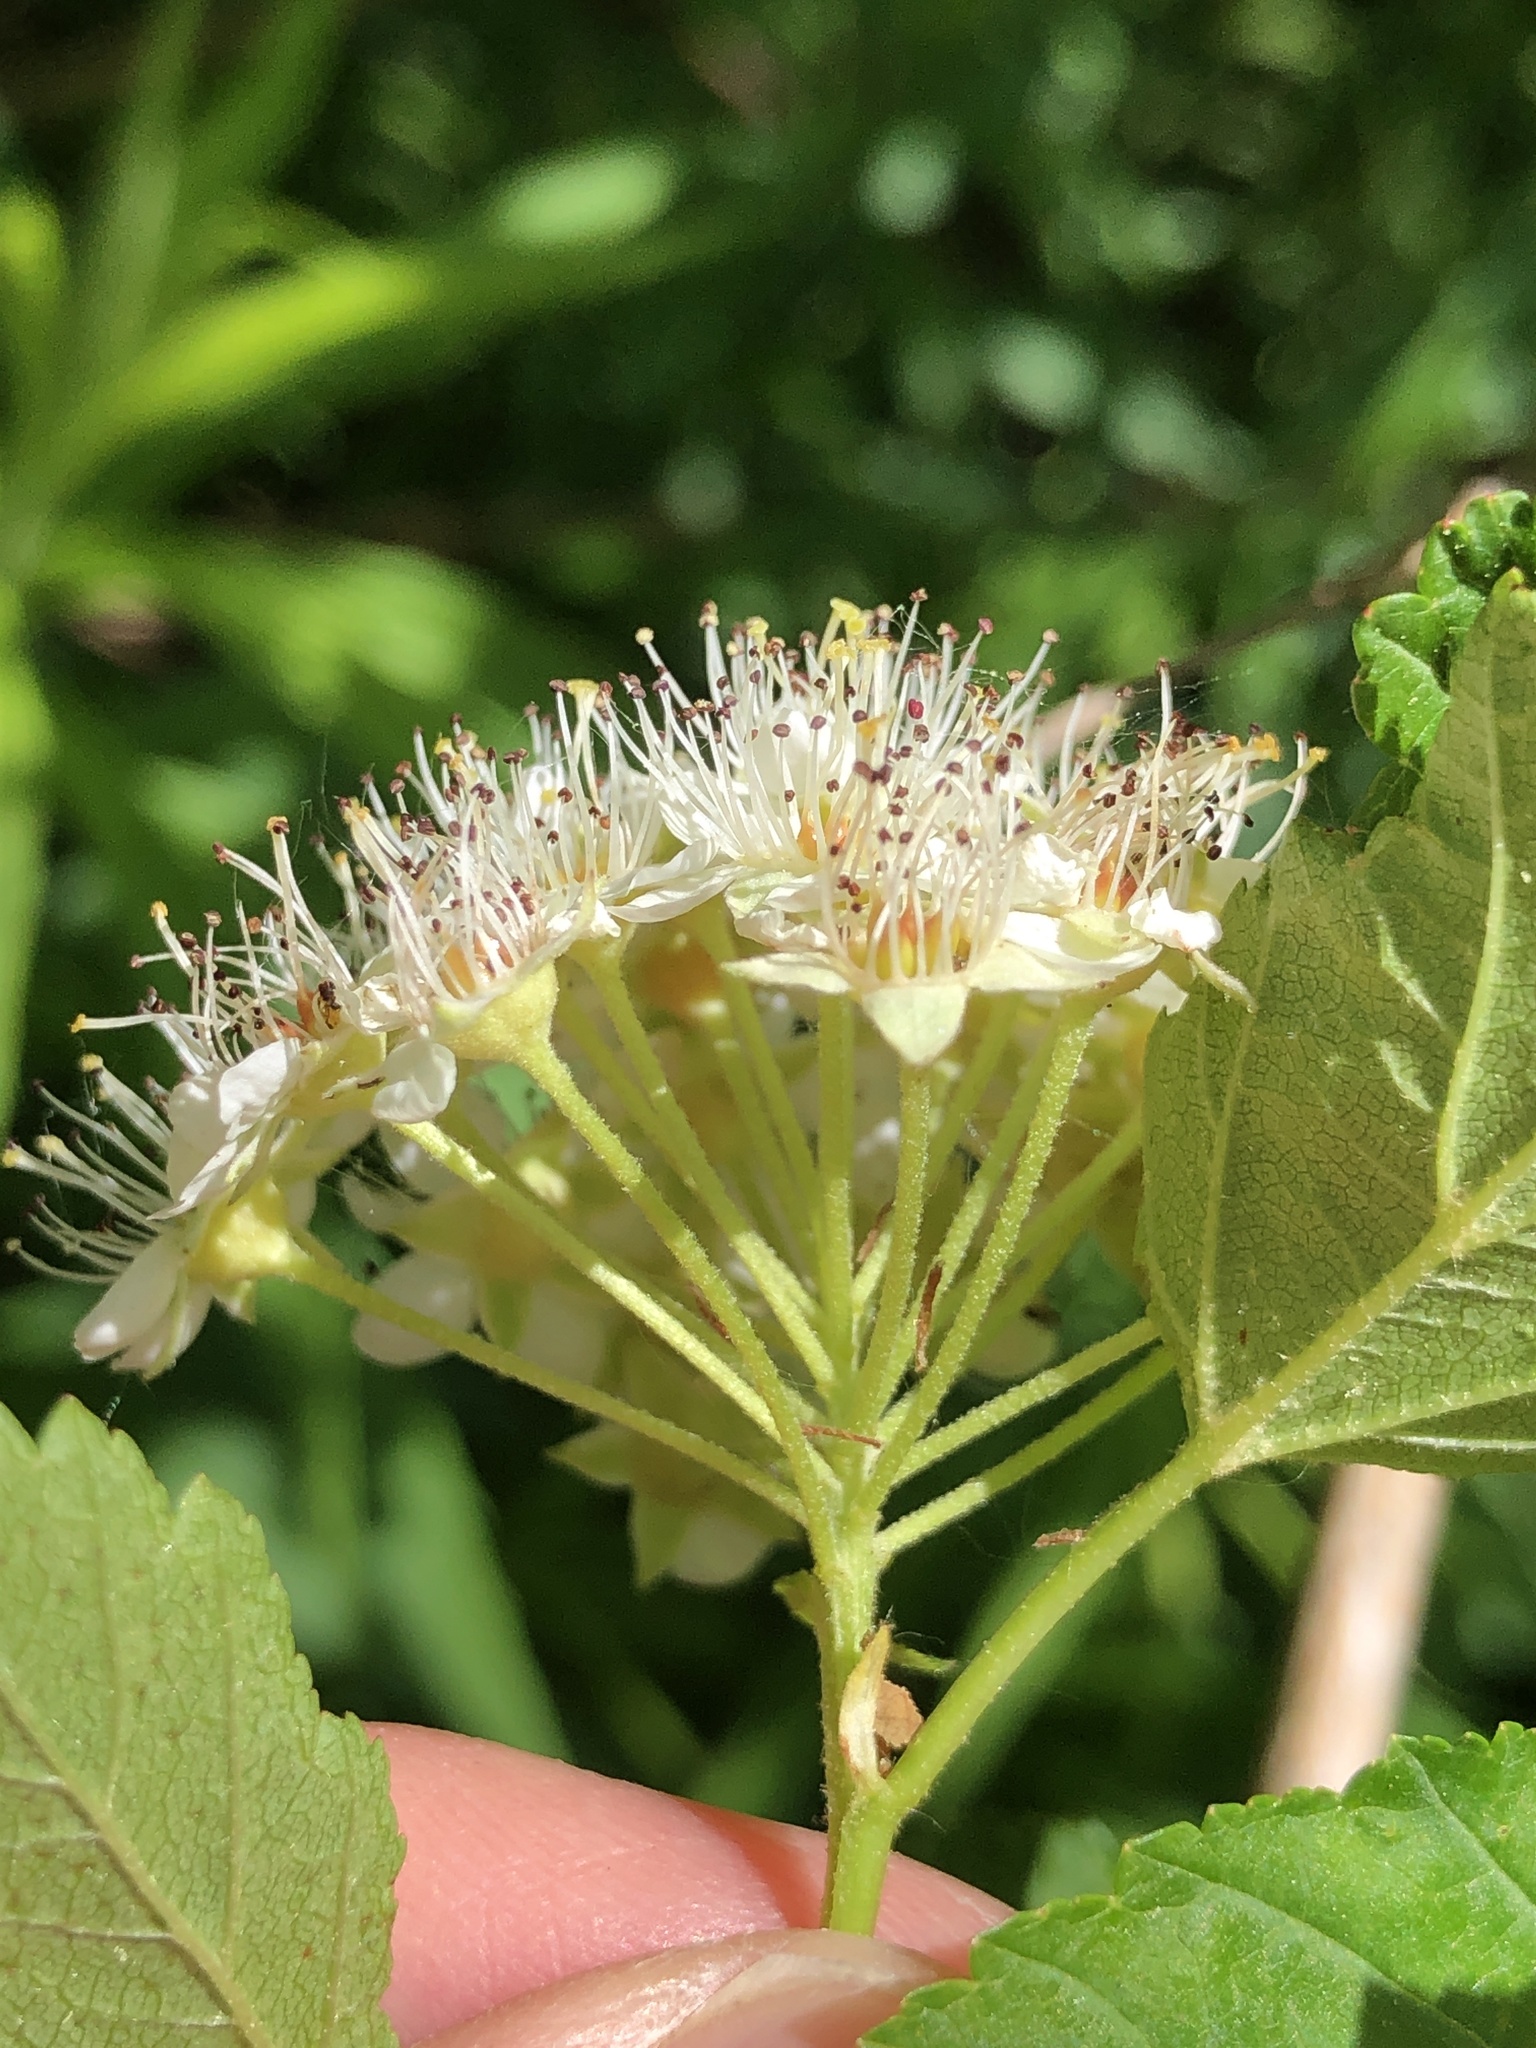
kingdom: Plantae
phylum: Tracheophyta
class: Magnoliopsida
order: Rosales
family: Rosaceae
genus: Physocarpus
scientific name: Physocarpus opulifolius
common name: Ninebark
